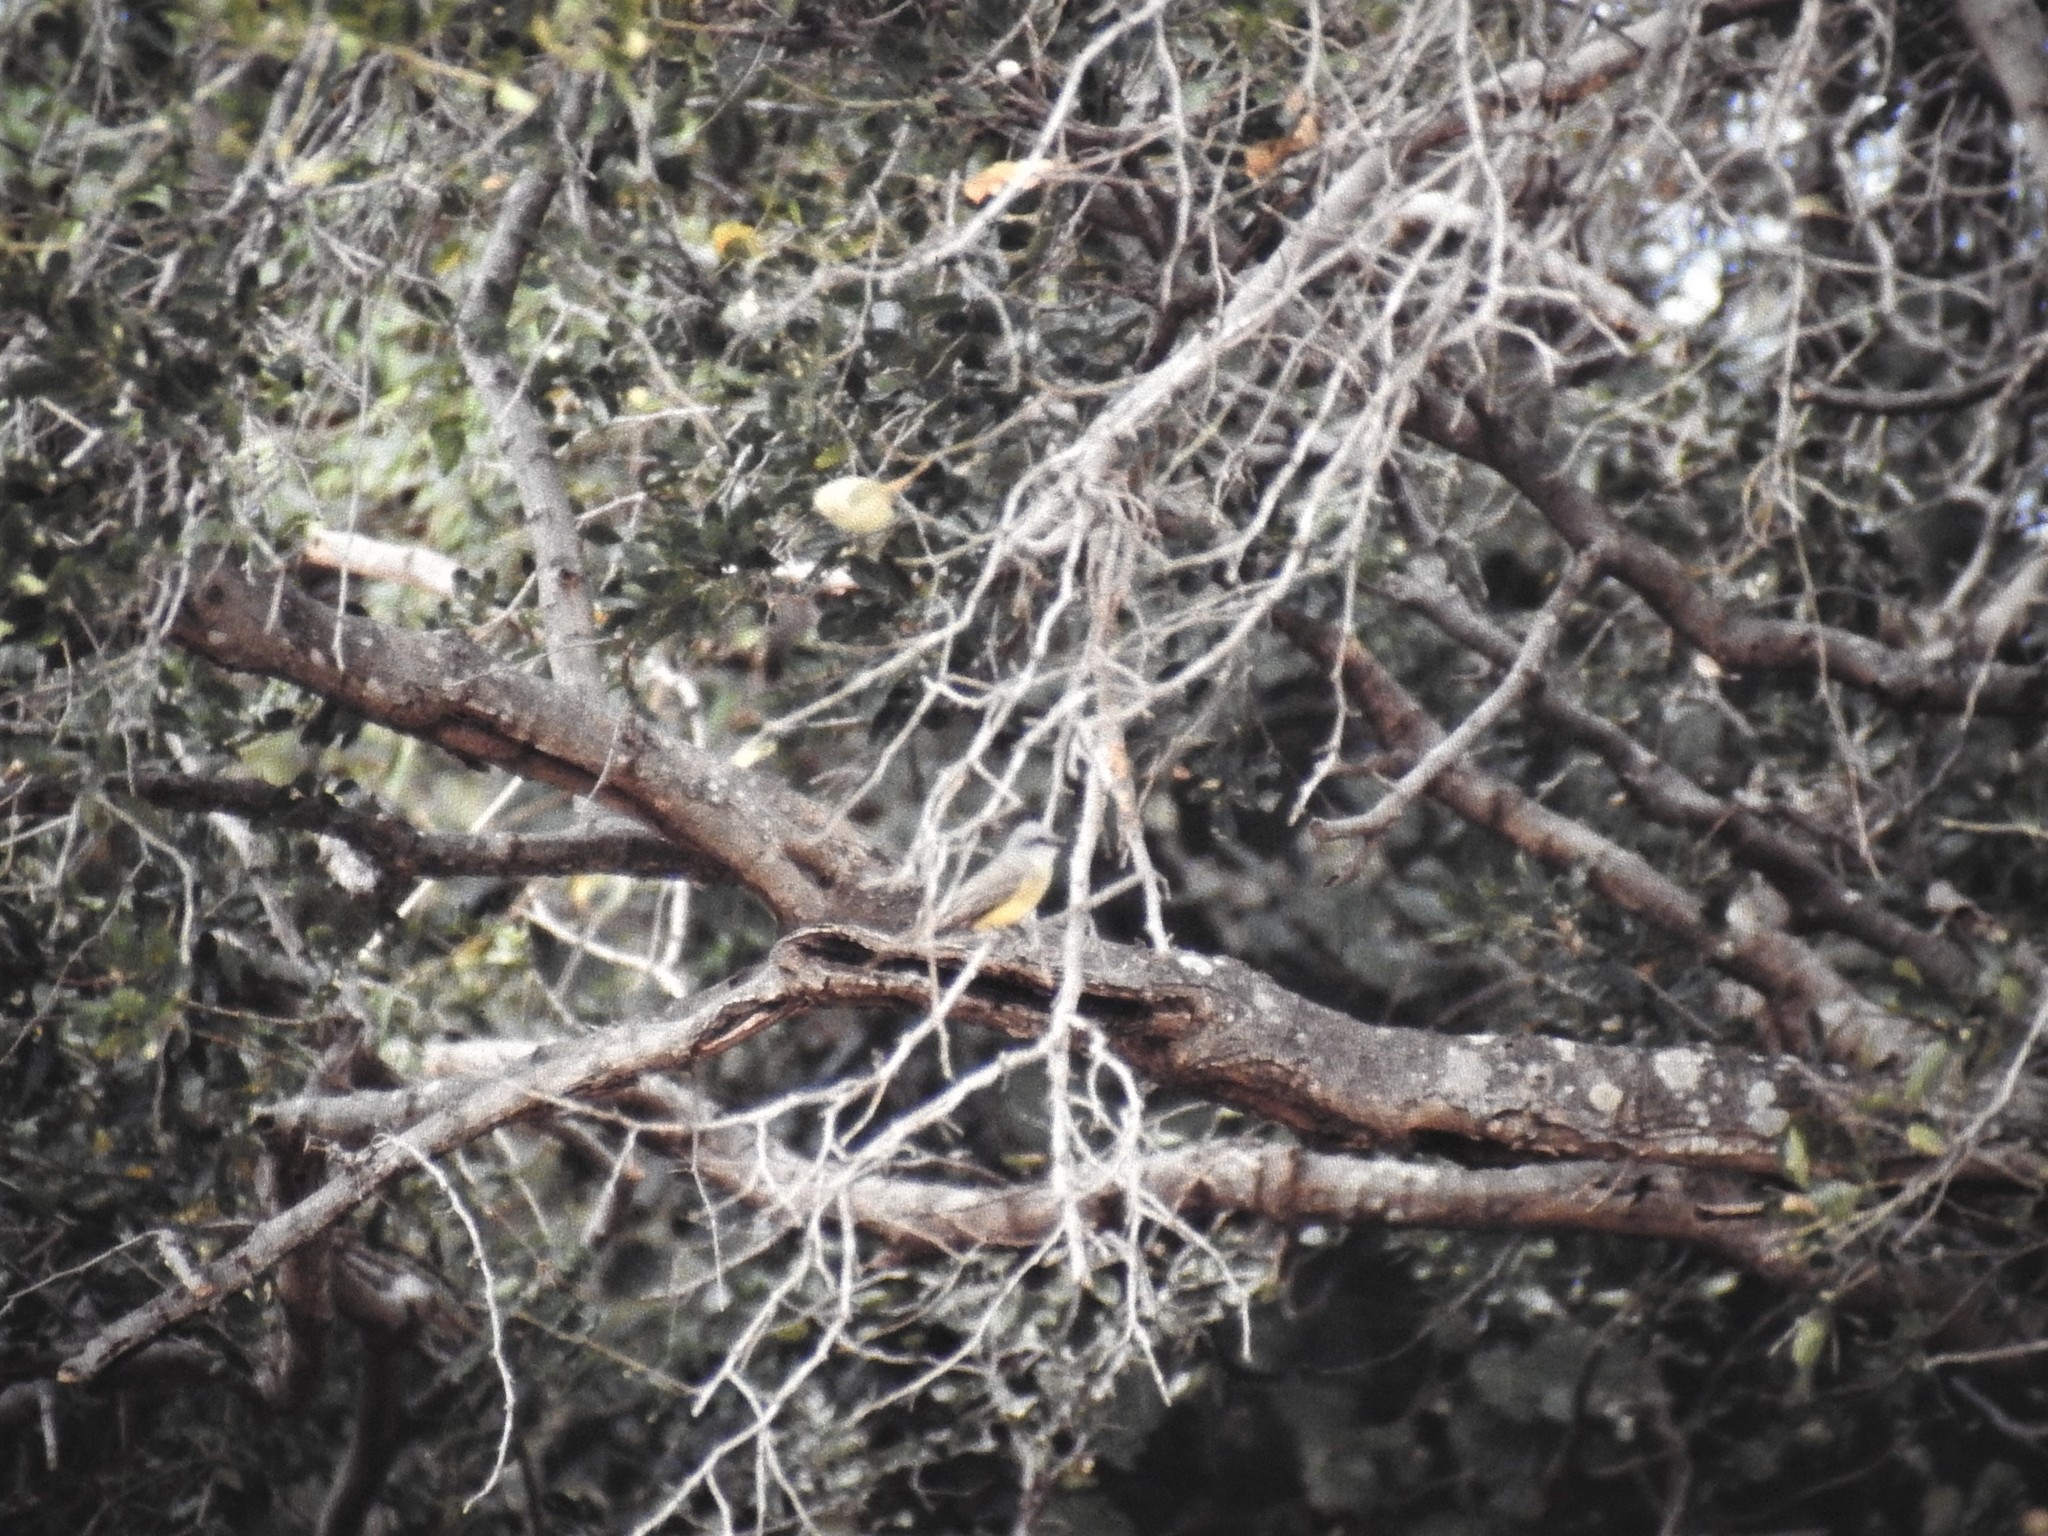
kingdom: Animalia
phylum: Chordata
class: Aves
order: Passeriformes
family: Tyrannidae
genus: Tyrannus
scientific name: Tyrannus melancholicus
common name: Tropical kingbird
